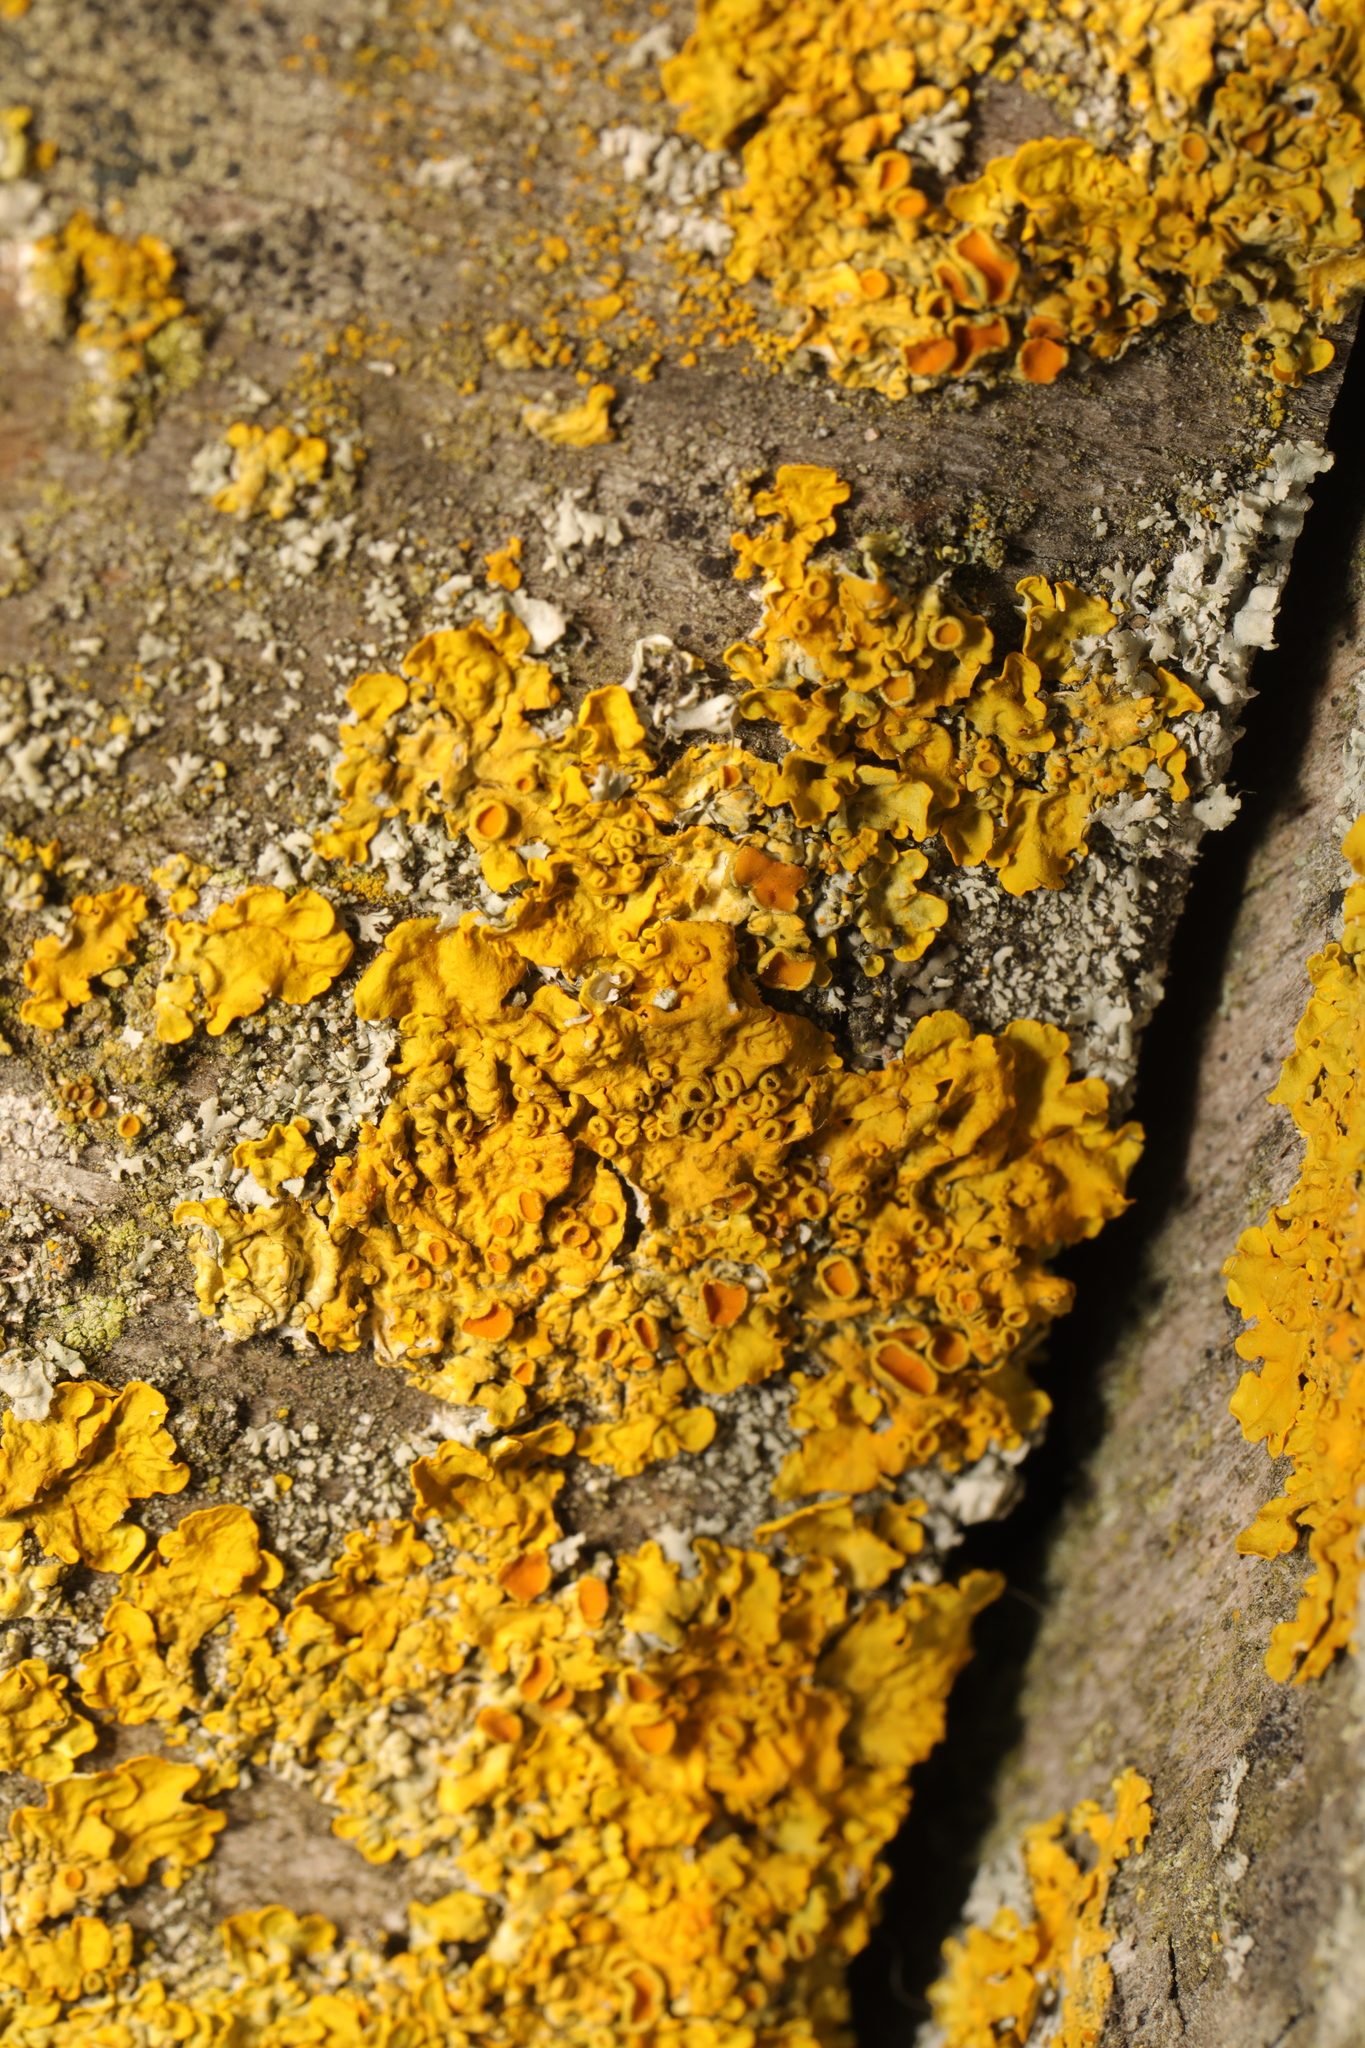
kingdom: Fungi
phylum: Ascomycota
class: Lecanoromycetes
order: Teloschistales
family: Teloschistaceae
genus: Xanthoria
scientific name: Xanthoria parietina
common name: Common orange lichen
